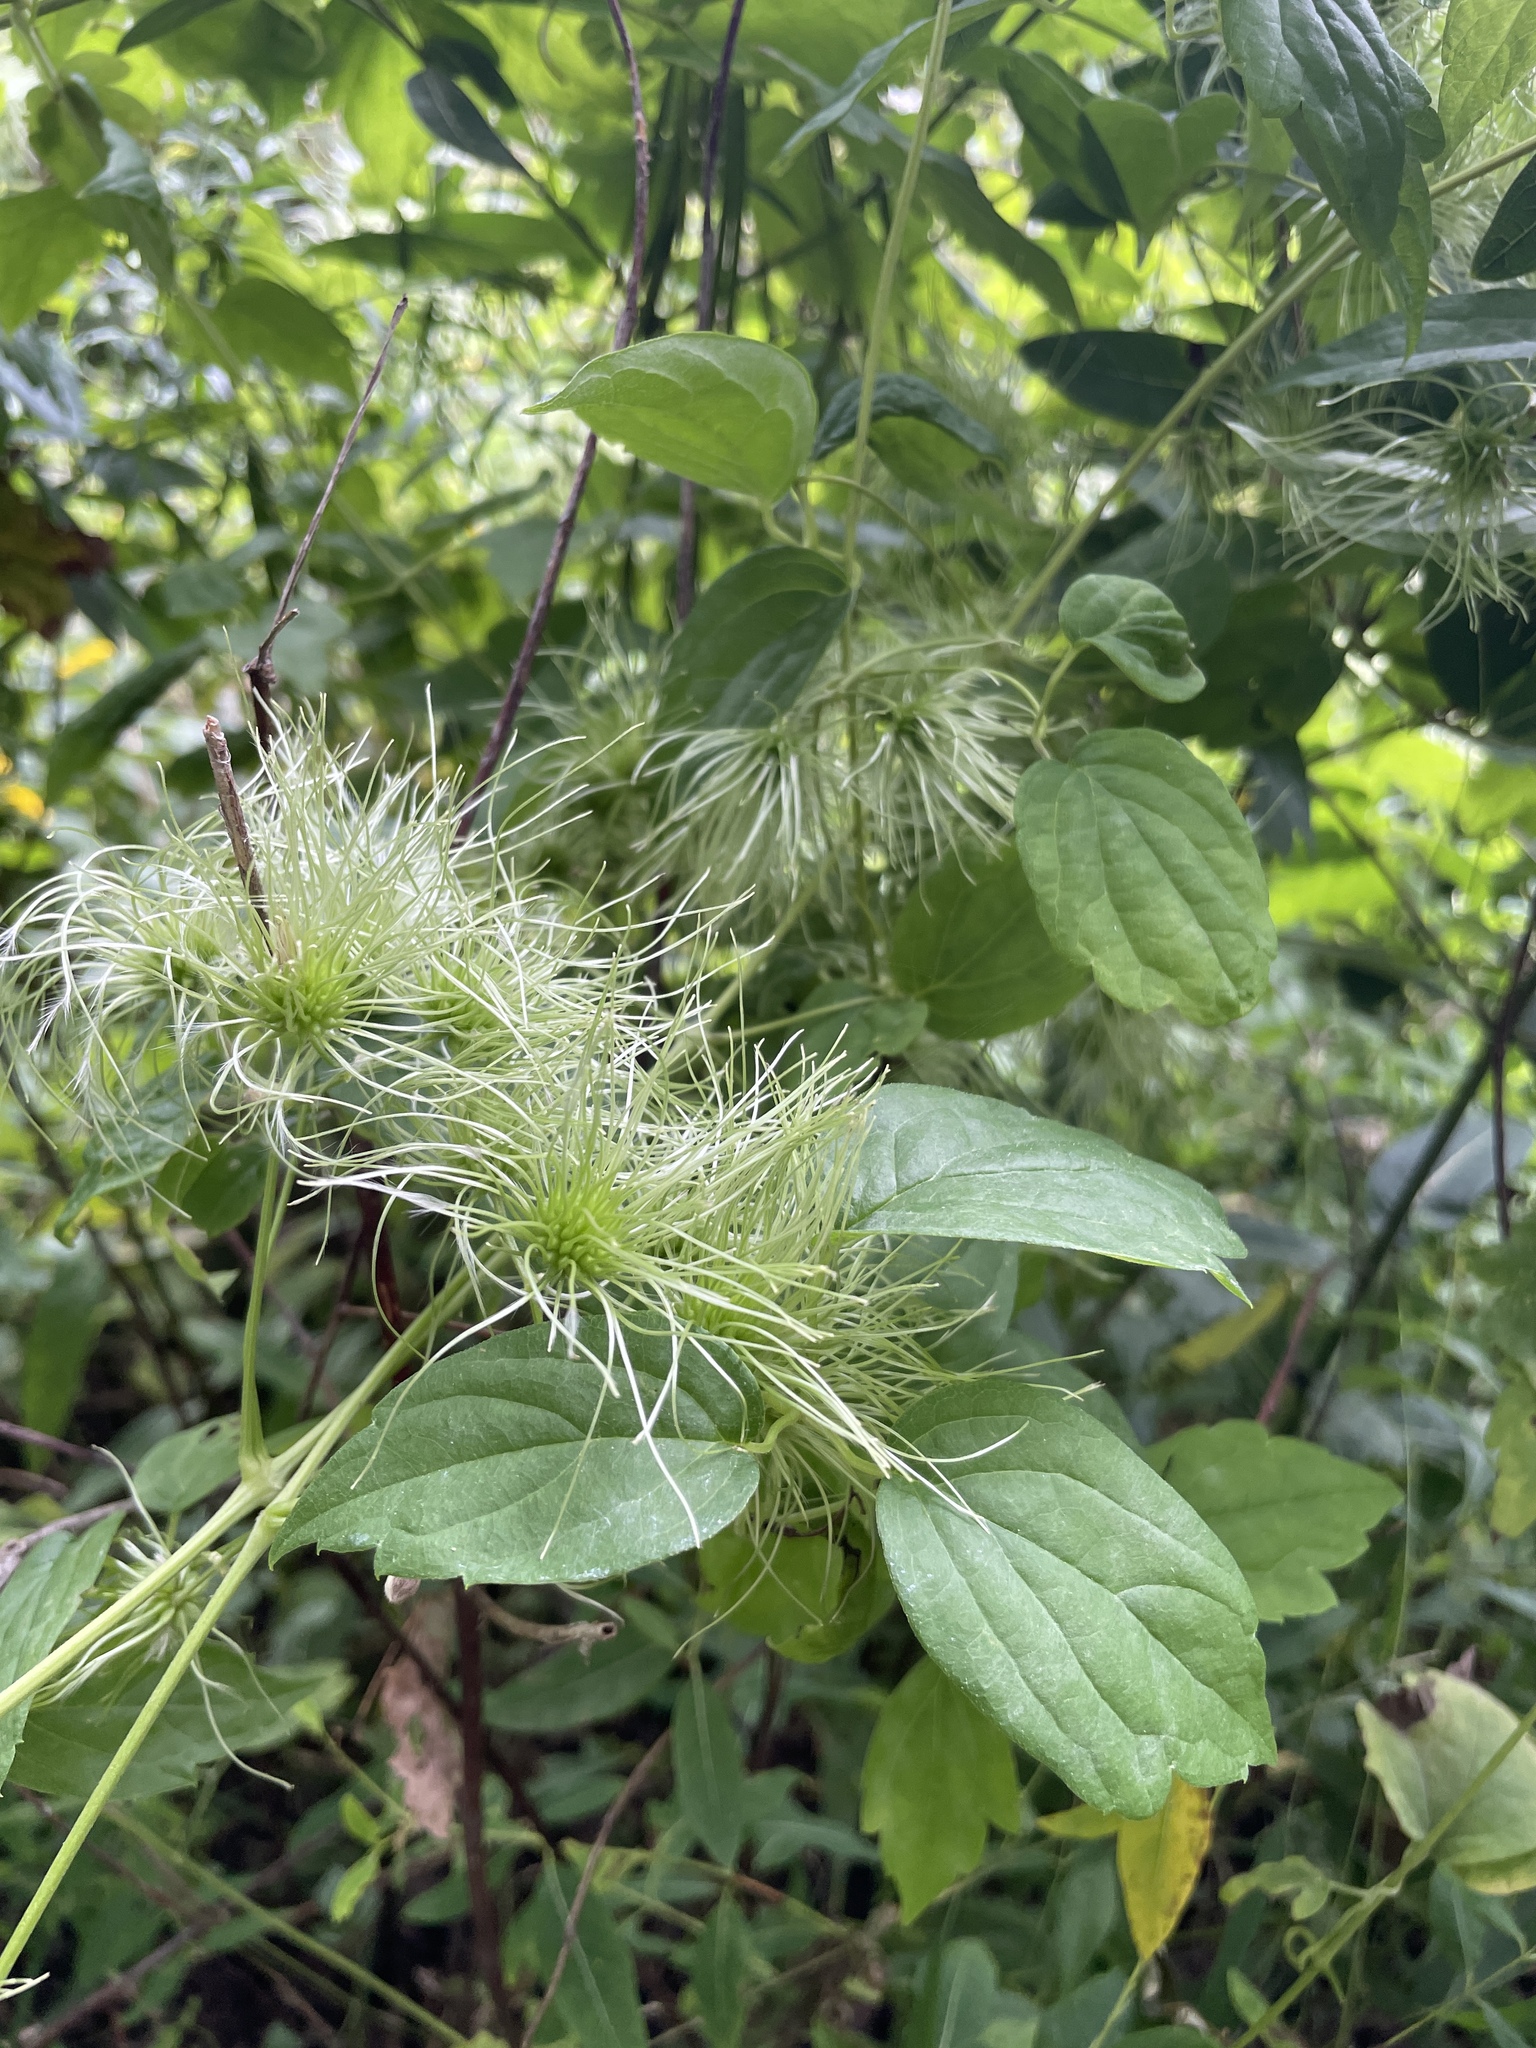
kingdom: Plantae
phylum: Tracheophyta
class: Magnoliopsida
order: Ranunculales
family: Ranunculaceae
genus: Clematis
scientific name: Clematis virginiana
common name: Virgin's-bower
